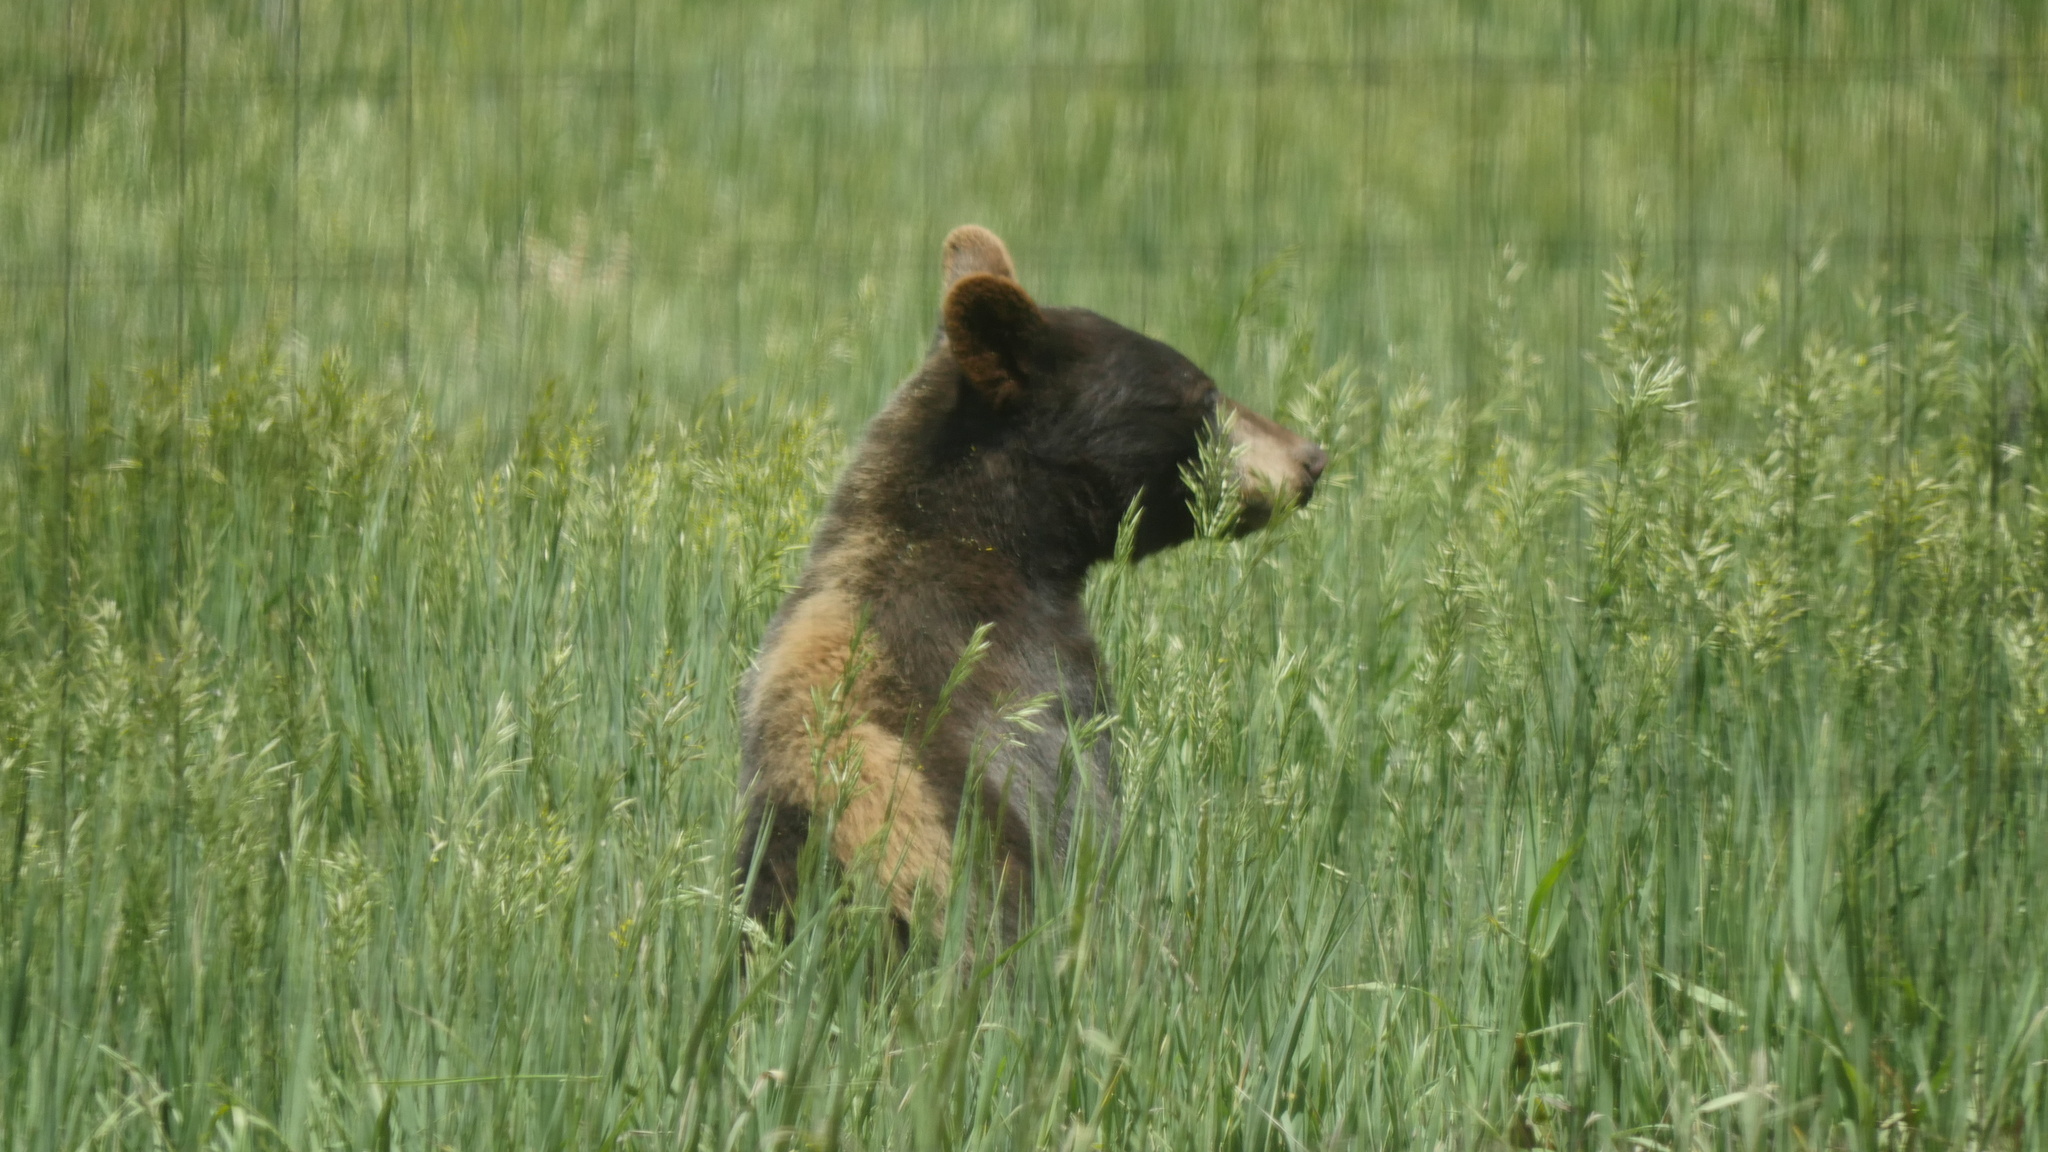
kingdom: Animalia
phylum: Chordata
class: Mammalia
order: Carnivora
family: Ursidae
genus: Ursus
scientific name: Ursus americanus
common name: American black bear
